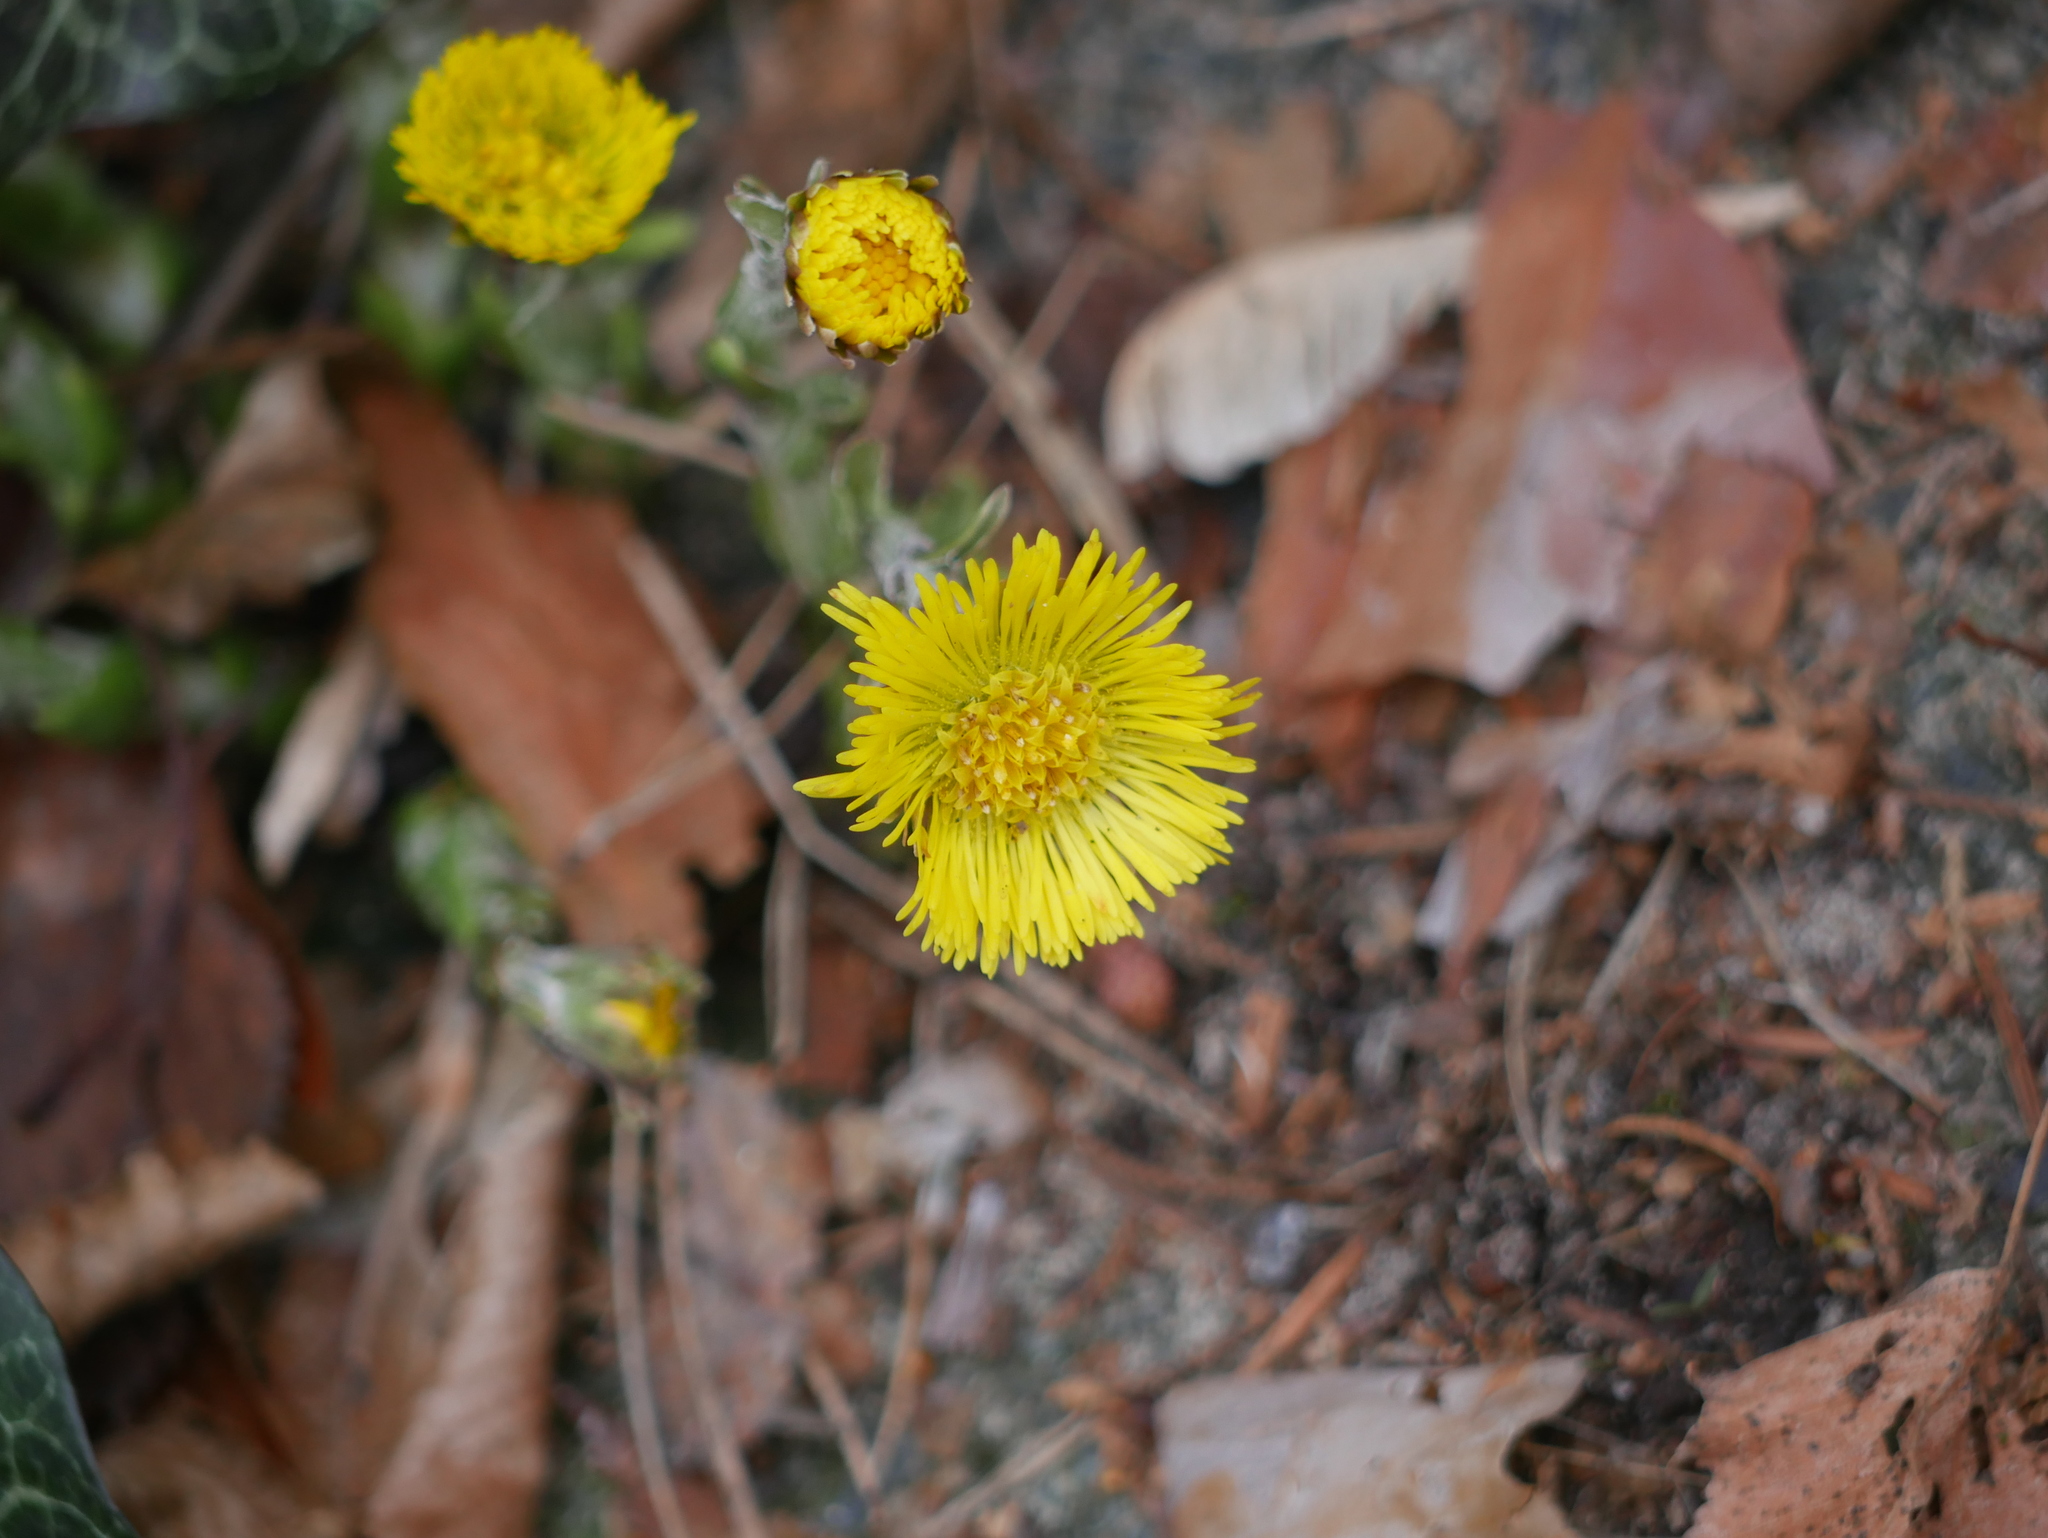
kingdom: Plantae
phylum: Tracheophyta
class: Magnoliopsida
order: Asterales
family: Asteraceae
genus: Tussilago
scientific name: Tussilago farfara
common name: Coltsfoot
